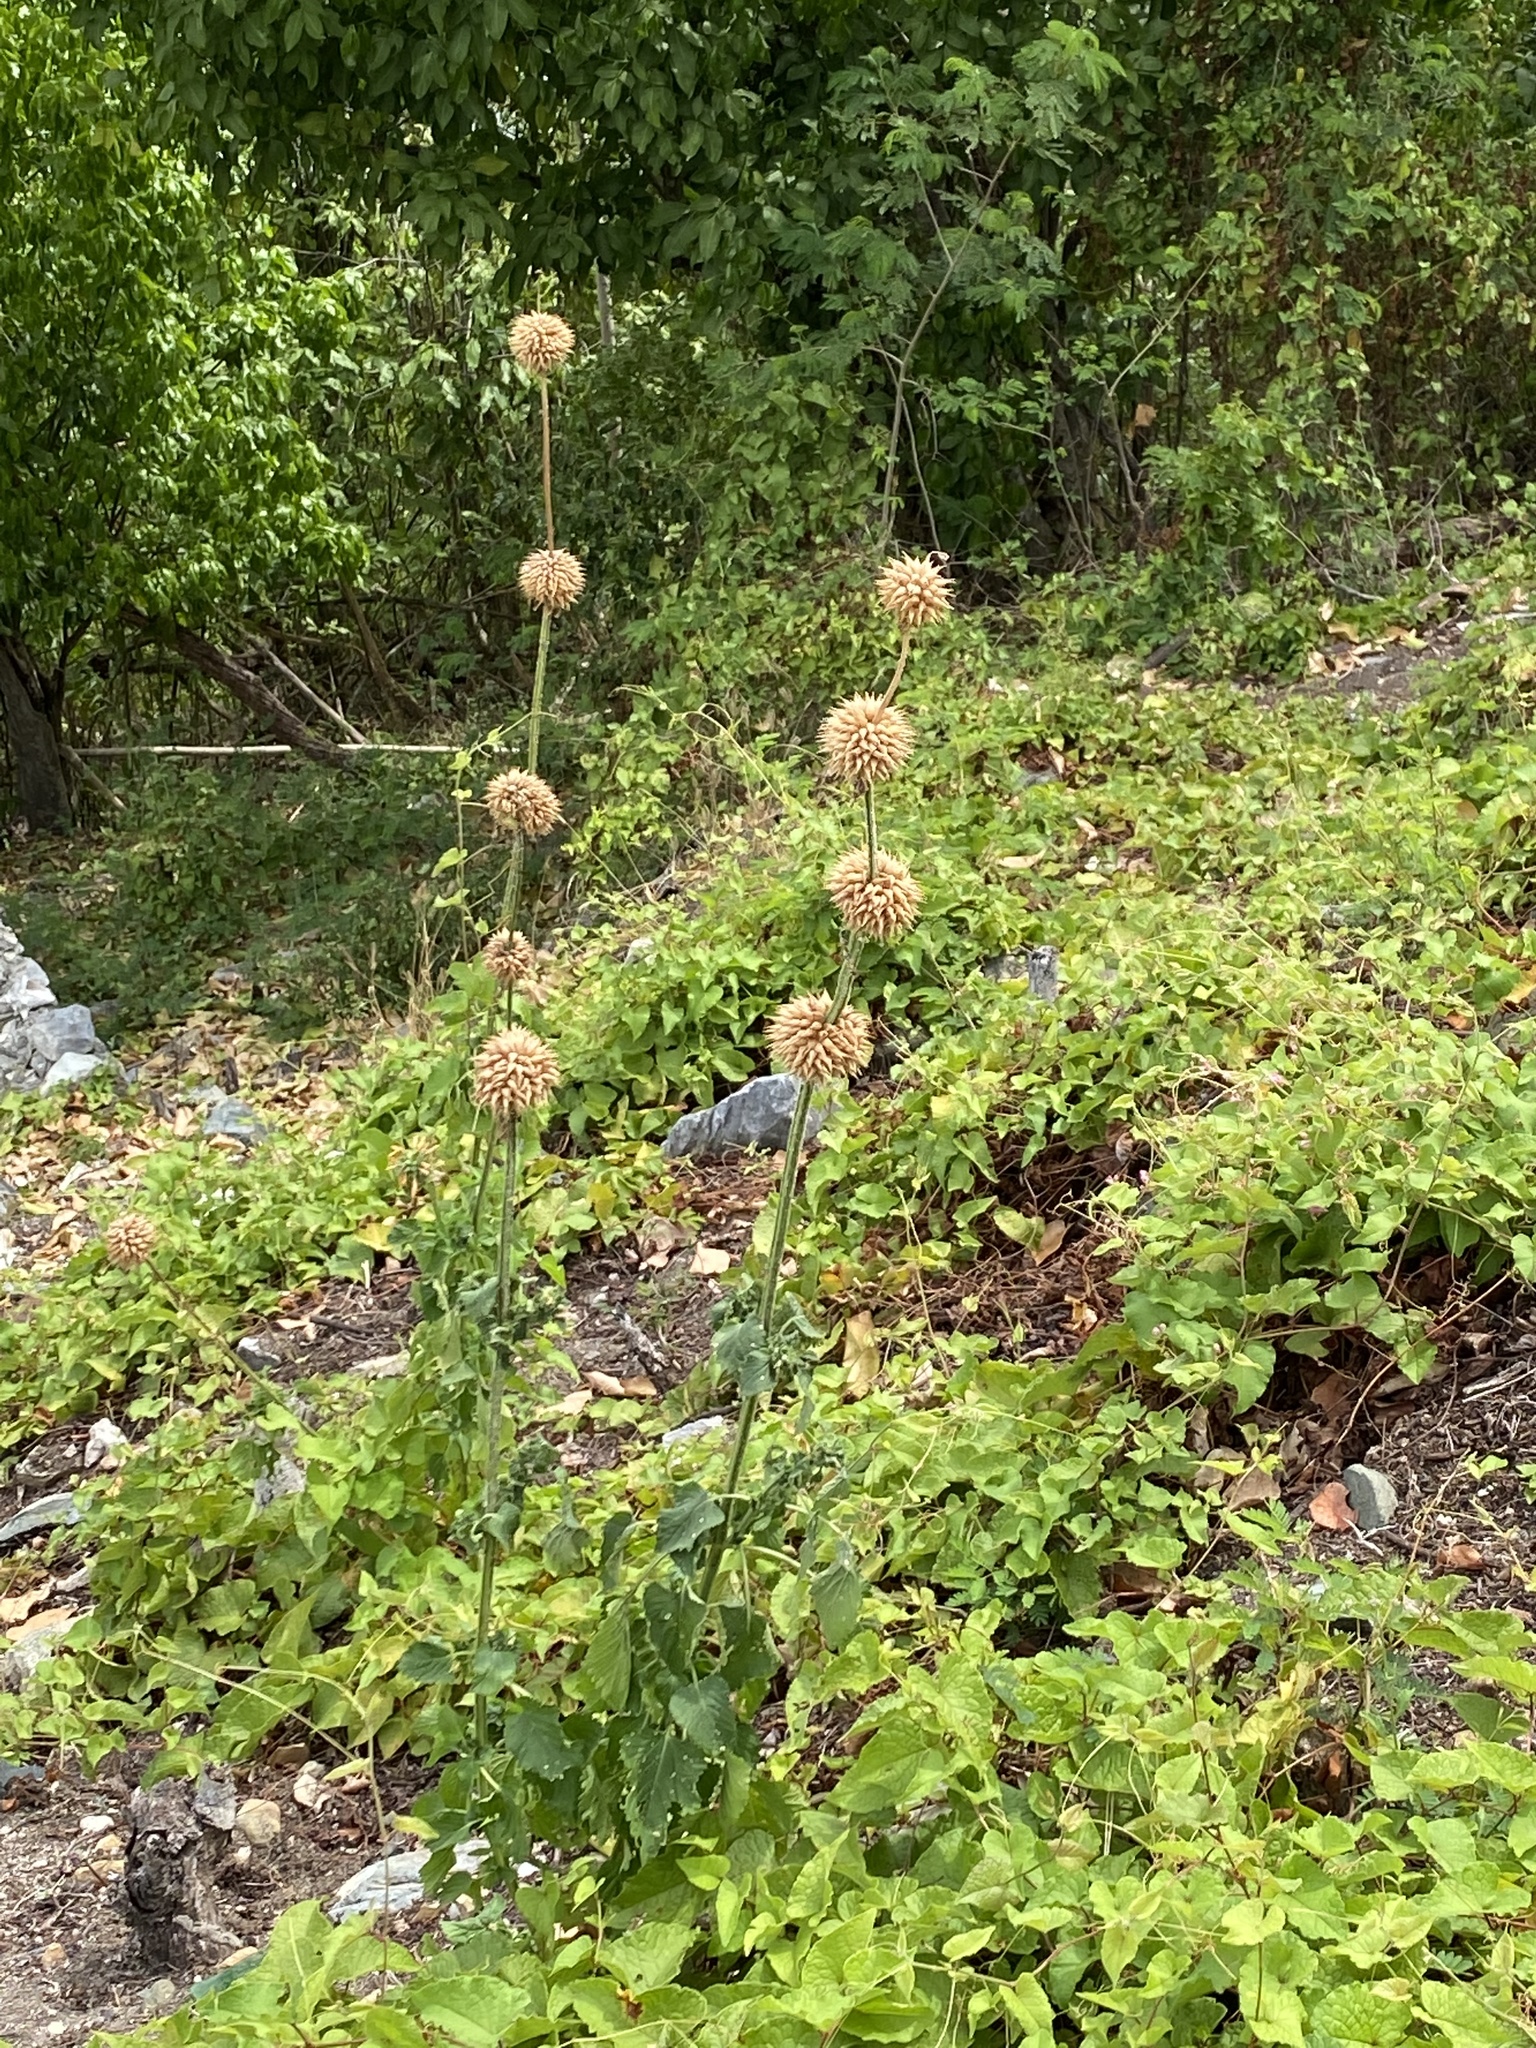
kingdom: Plantae
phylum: Tracheophyta
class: Magnoliopsida
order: Lamiales
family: Lamiaceae
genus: Leonotis
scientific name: Leonotis nepetifolia
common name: Christmas candlestick
